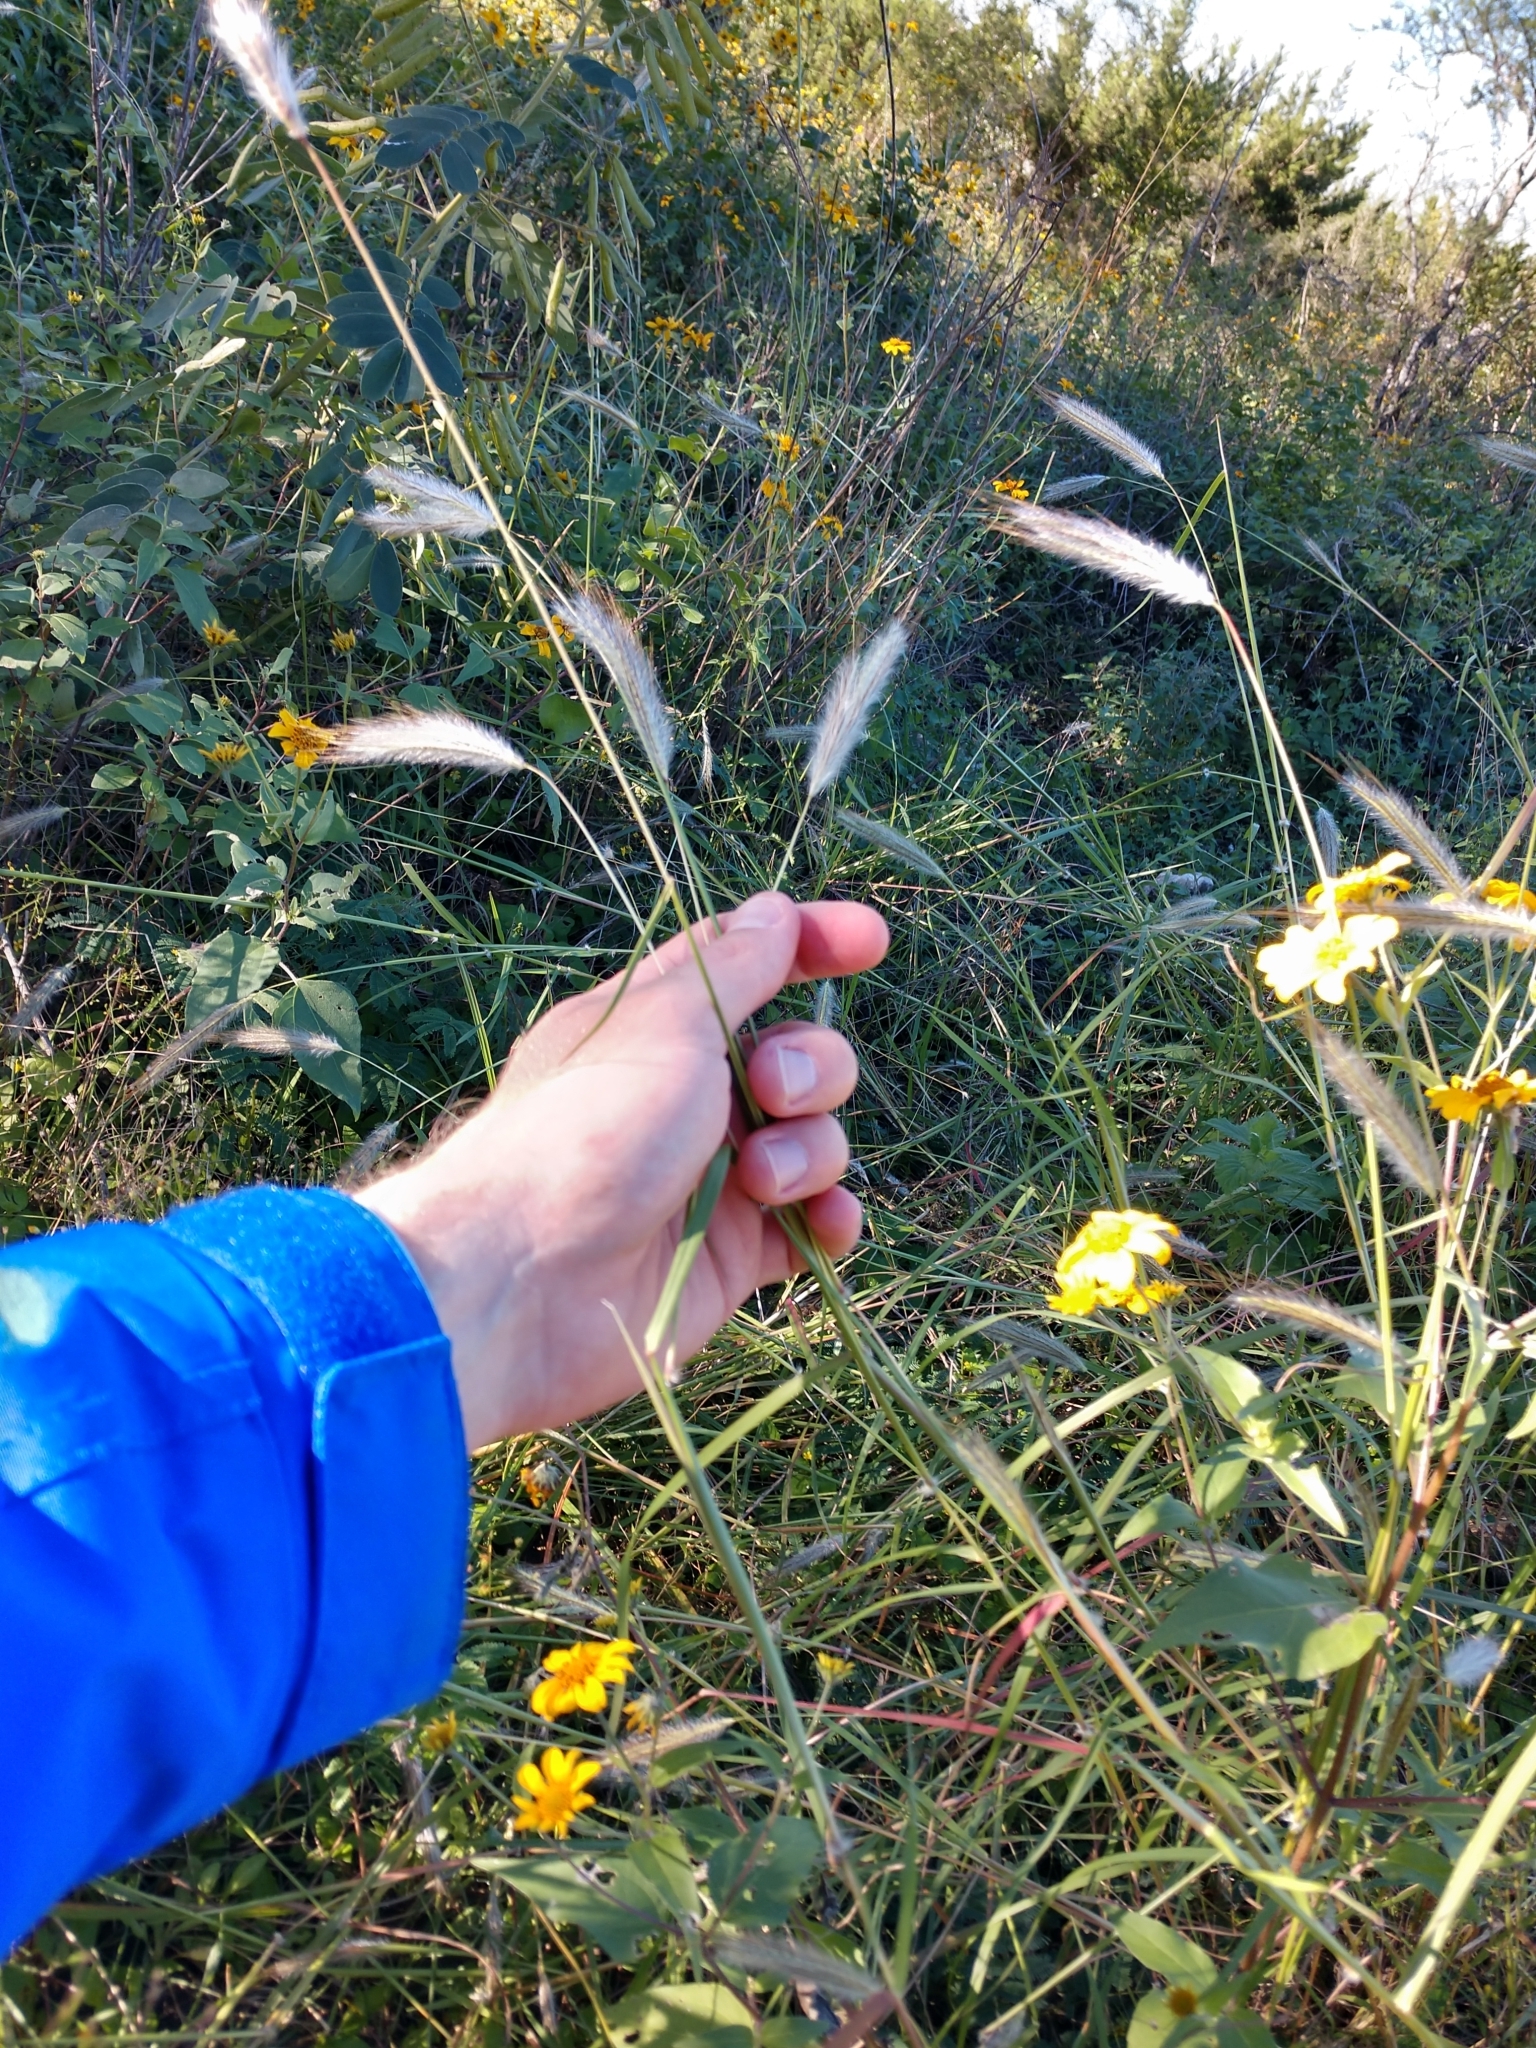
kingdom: Plantae
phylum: Tracheophyta
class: Liliopsida
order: Poales
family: Poaceae
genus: Dichanthium
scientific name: Dichanthium sericeum
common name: Silky bluestem
